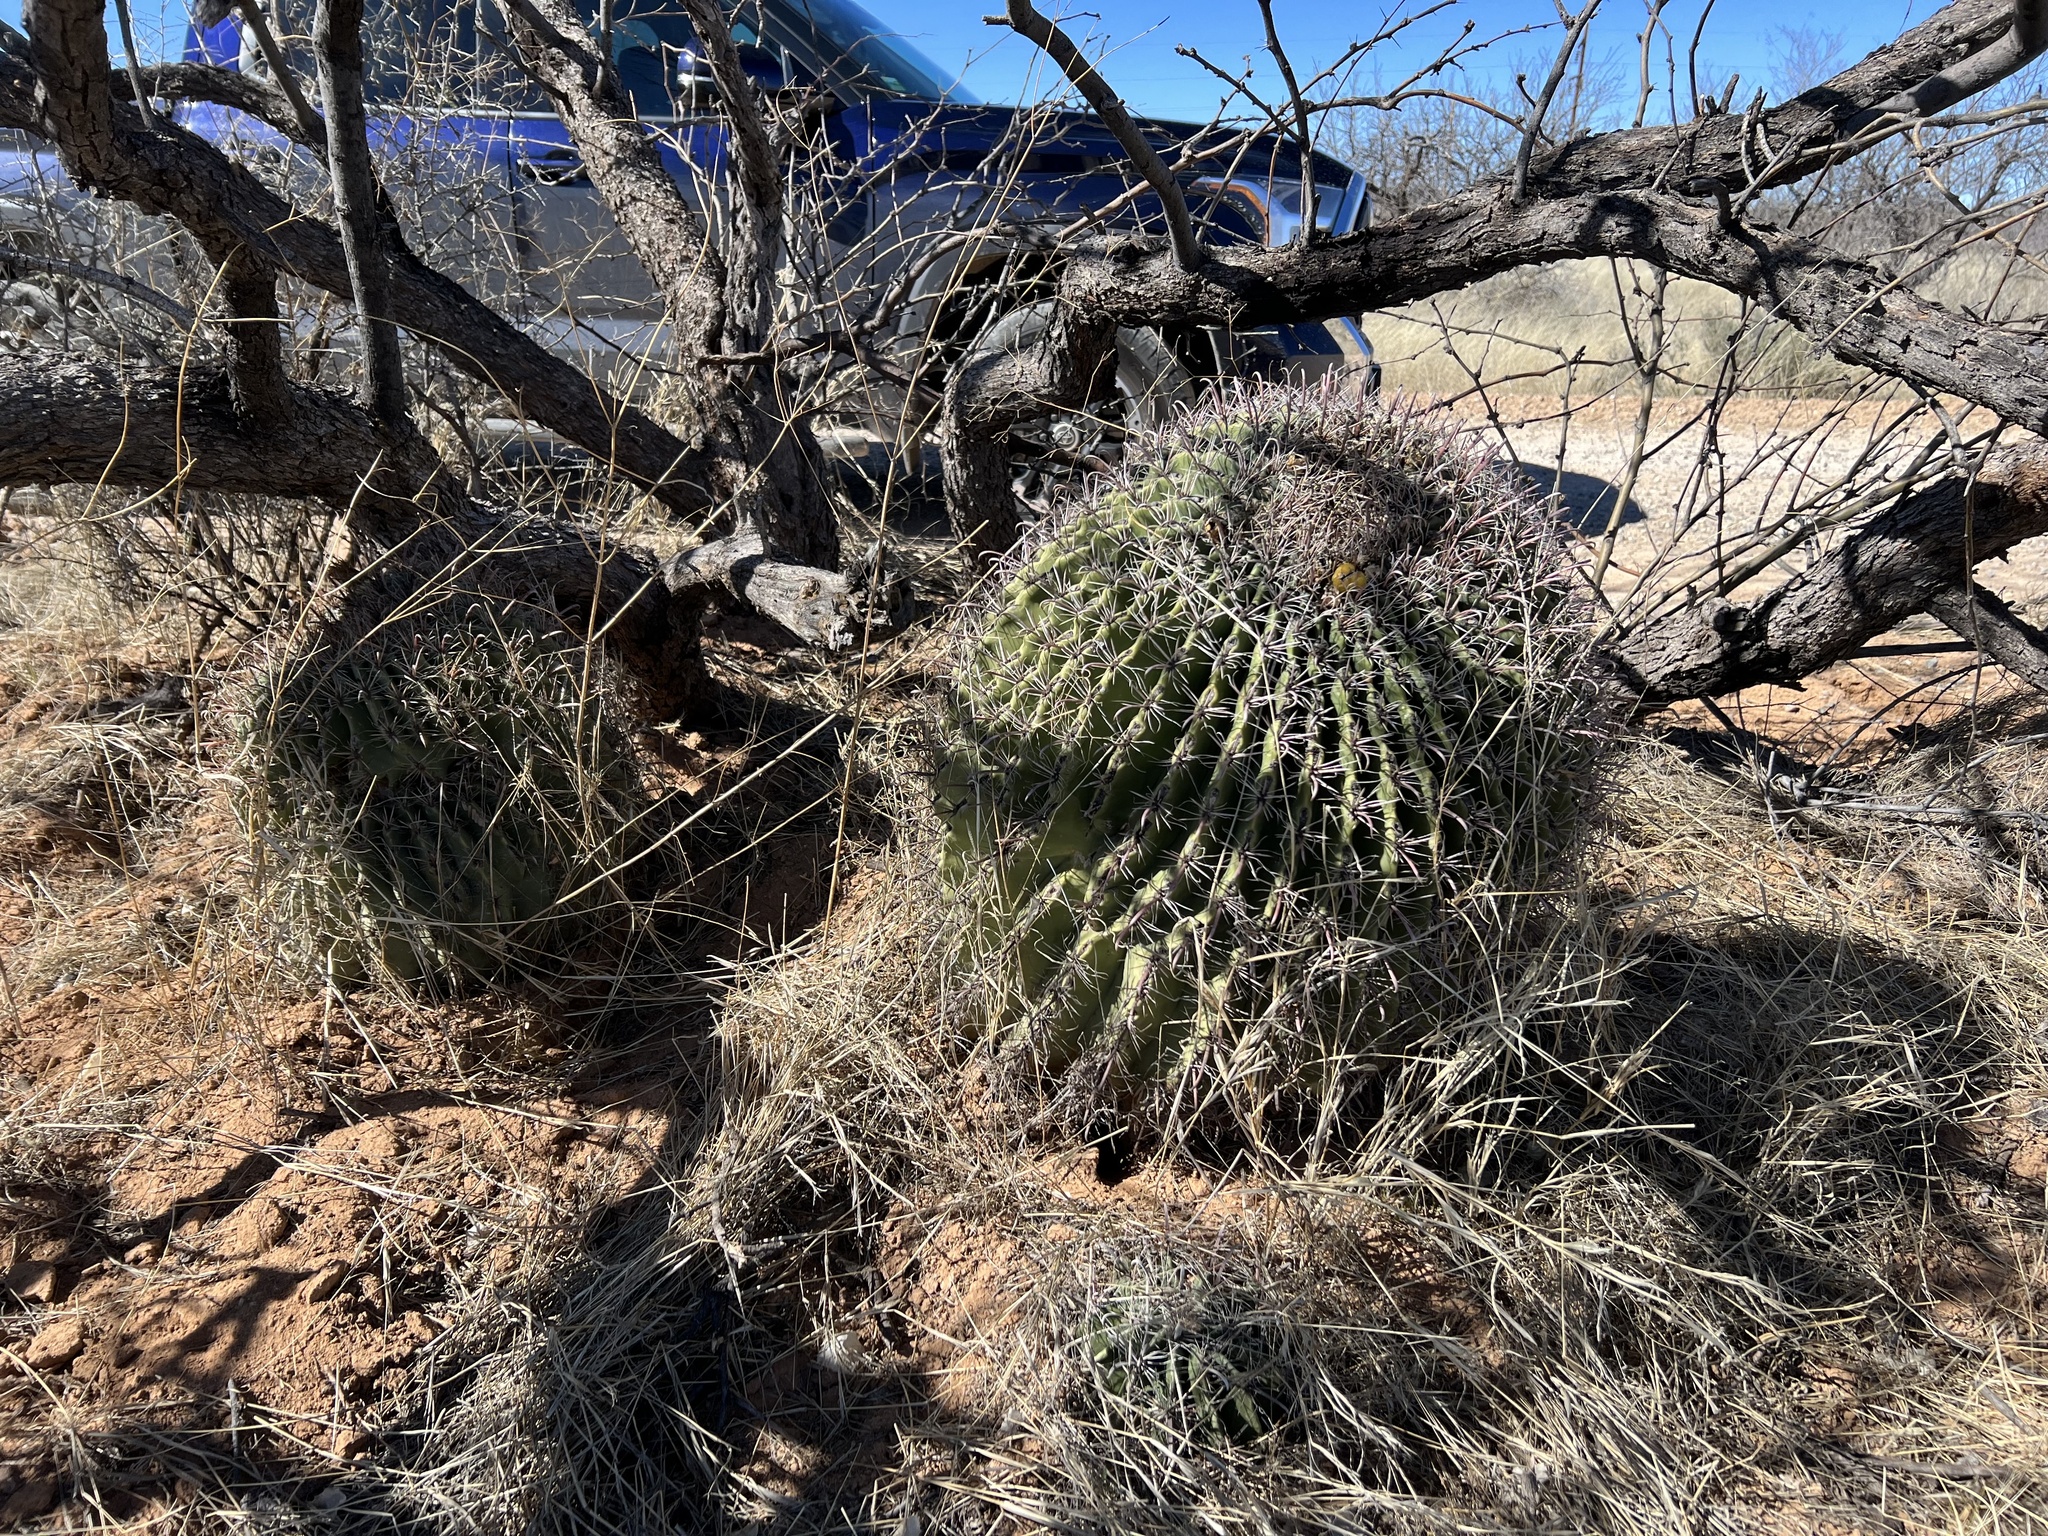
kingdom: Plantae
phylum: Tracheophyta
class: Magnoliopsida
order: Caryophyllales
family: Cactaceae
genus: Ferocactus
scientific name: Ferocactus wislizeni
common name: Candy barrel cactus
